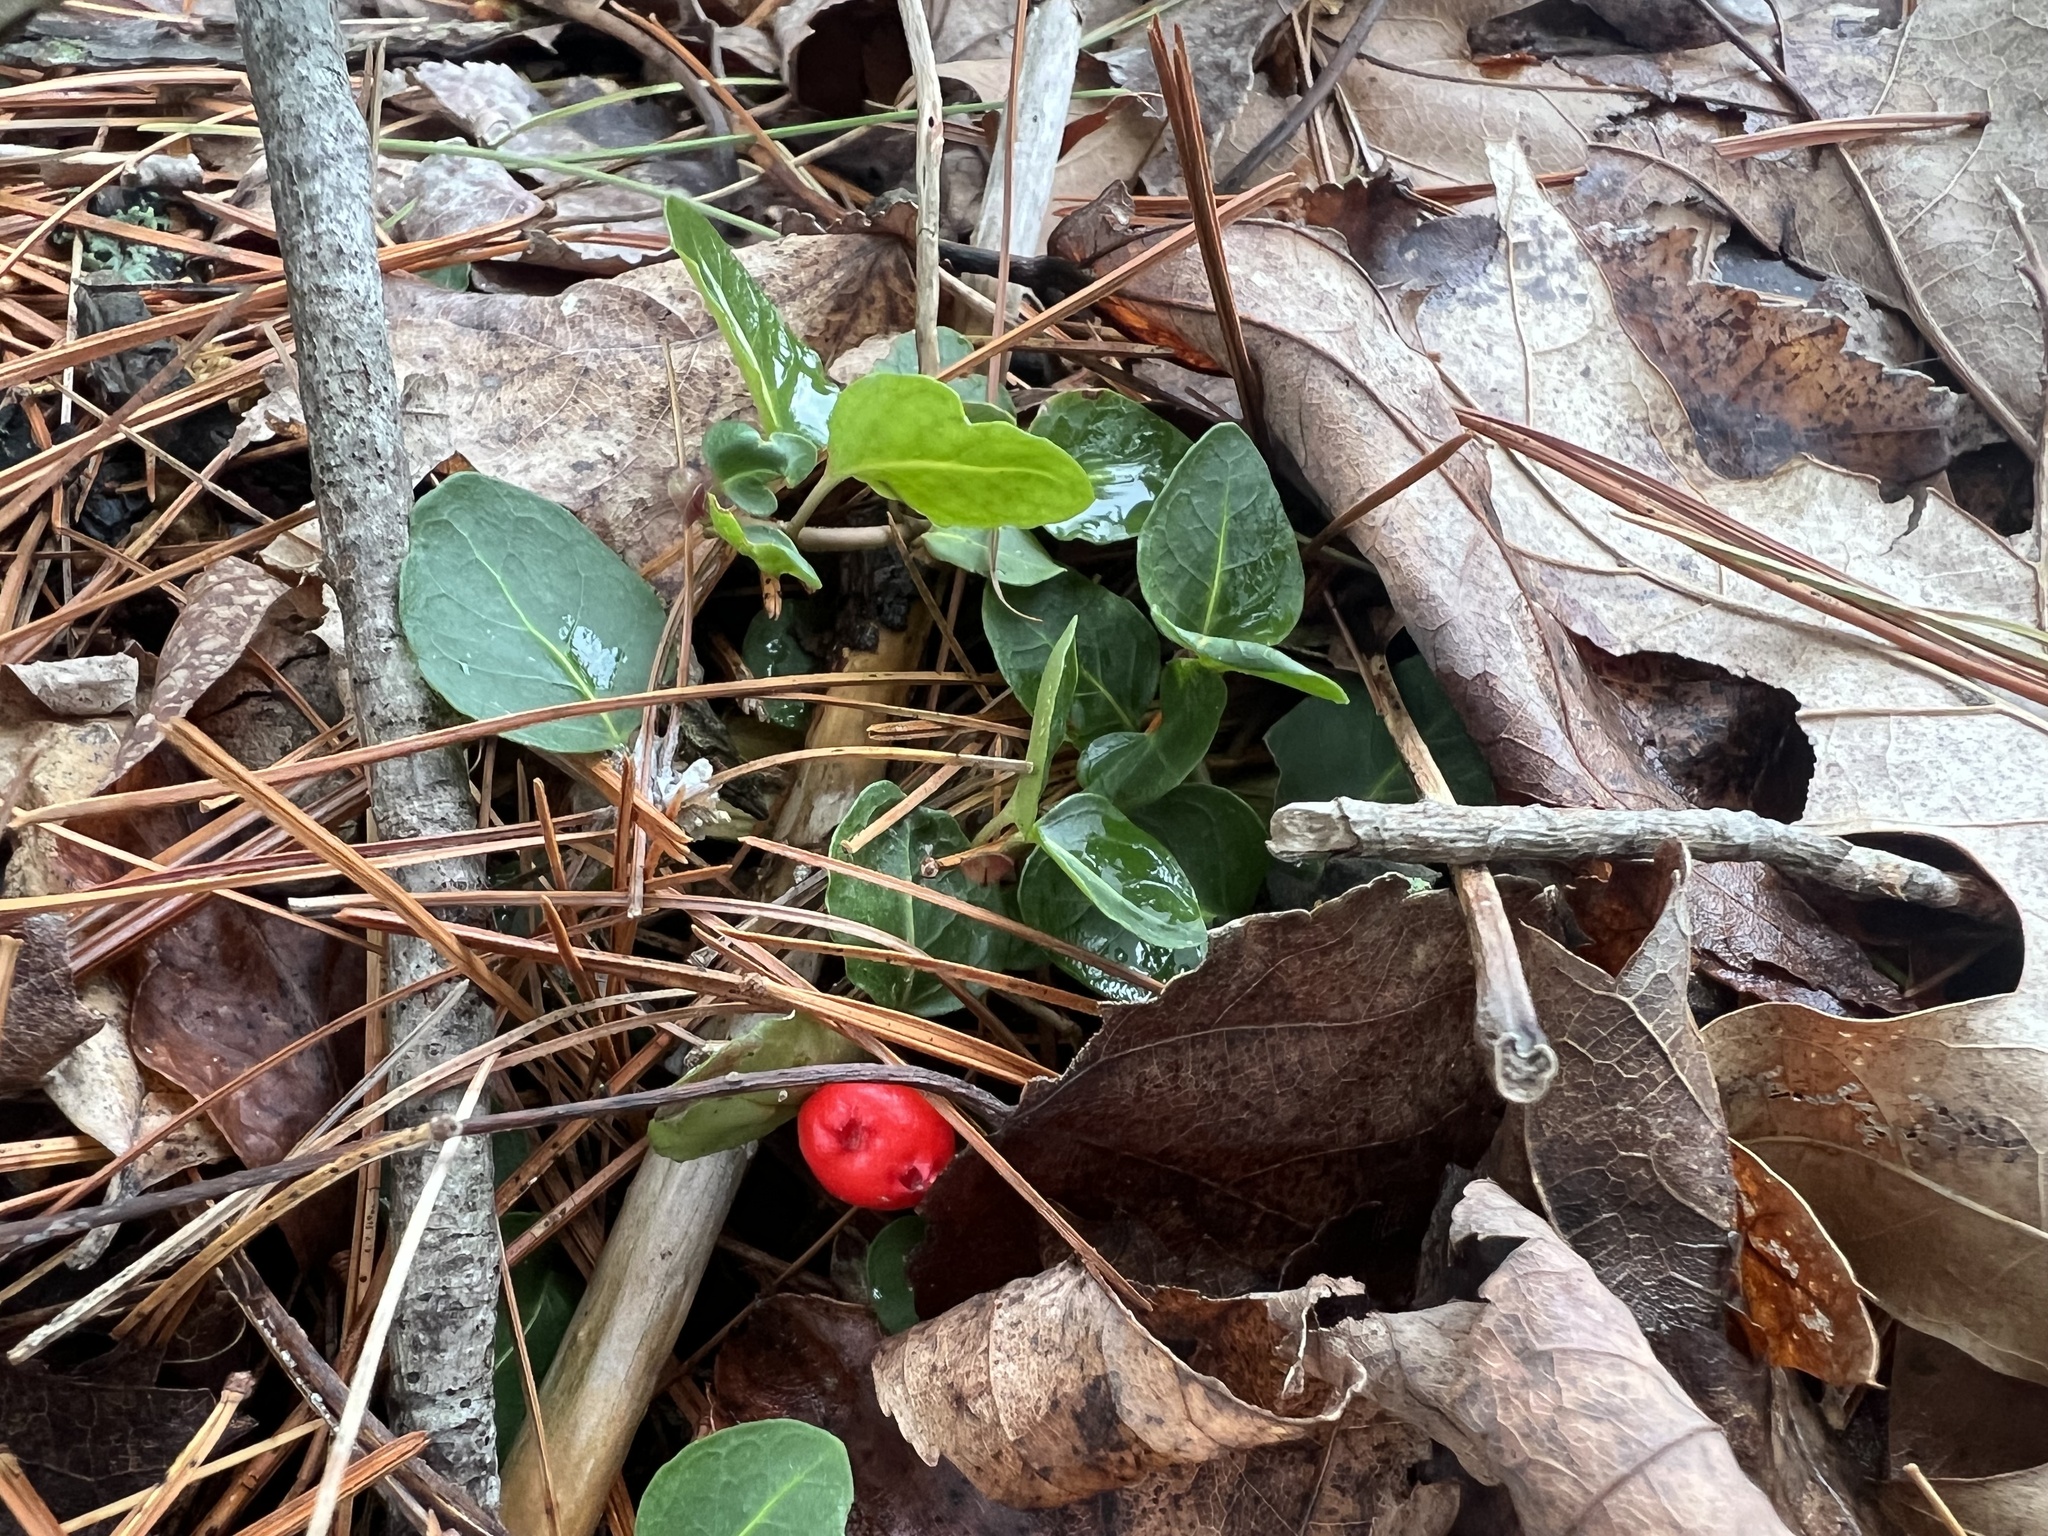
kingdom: Plantae
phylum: Tracheophyta
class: Magnoliopsida
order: Gentianales
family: Rubiaceae
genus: Mitchella
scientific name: Mitchella repens
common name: Partridge-berry
